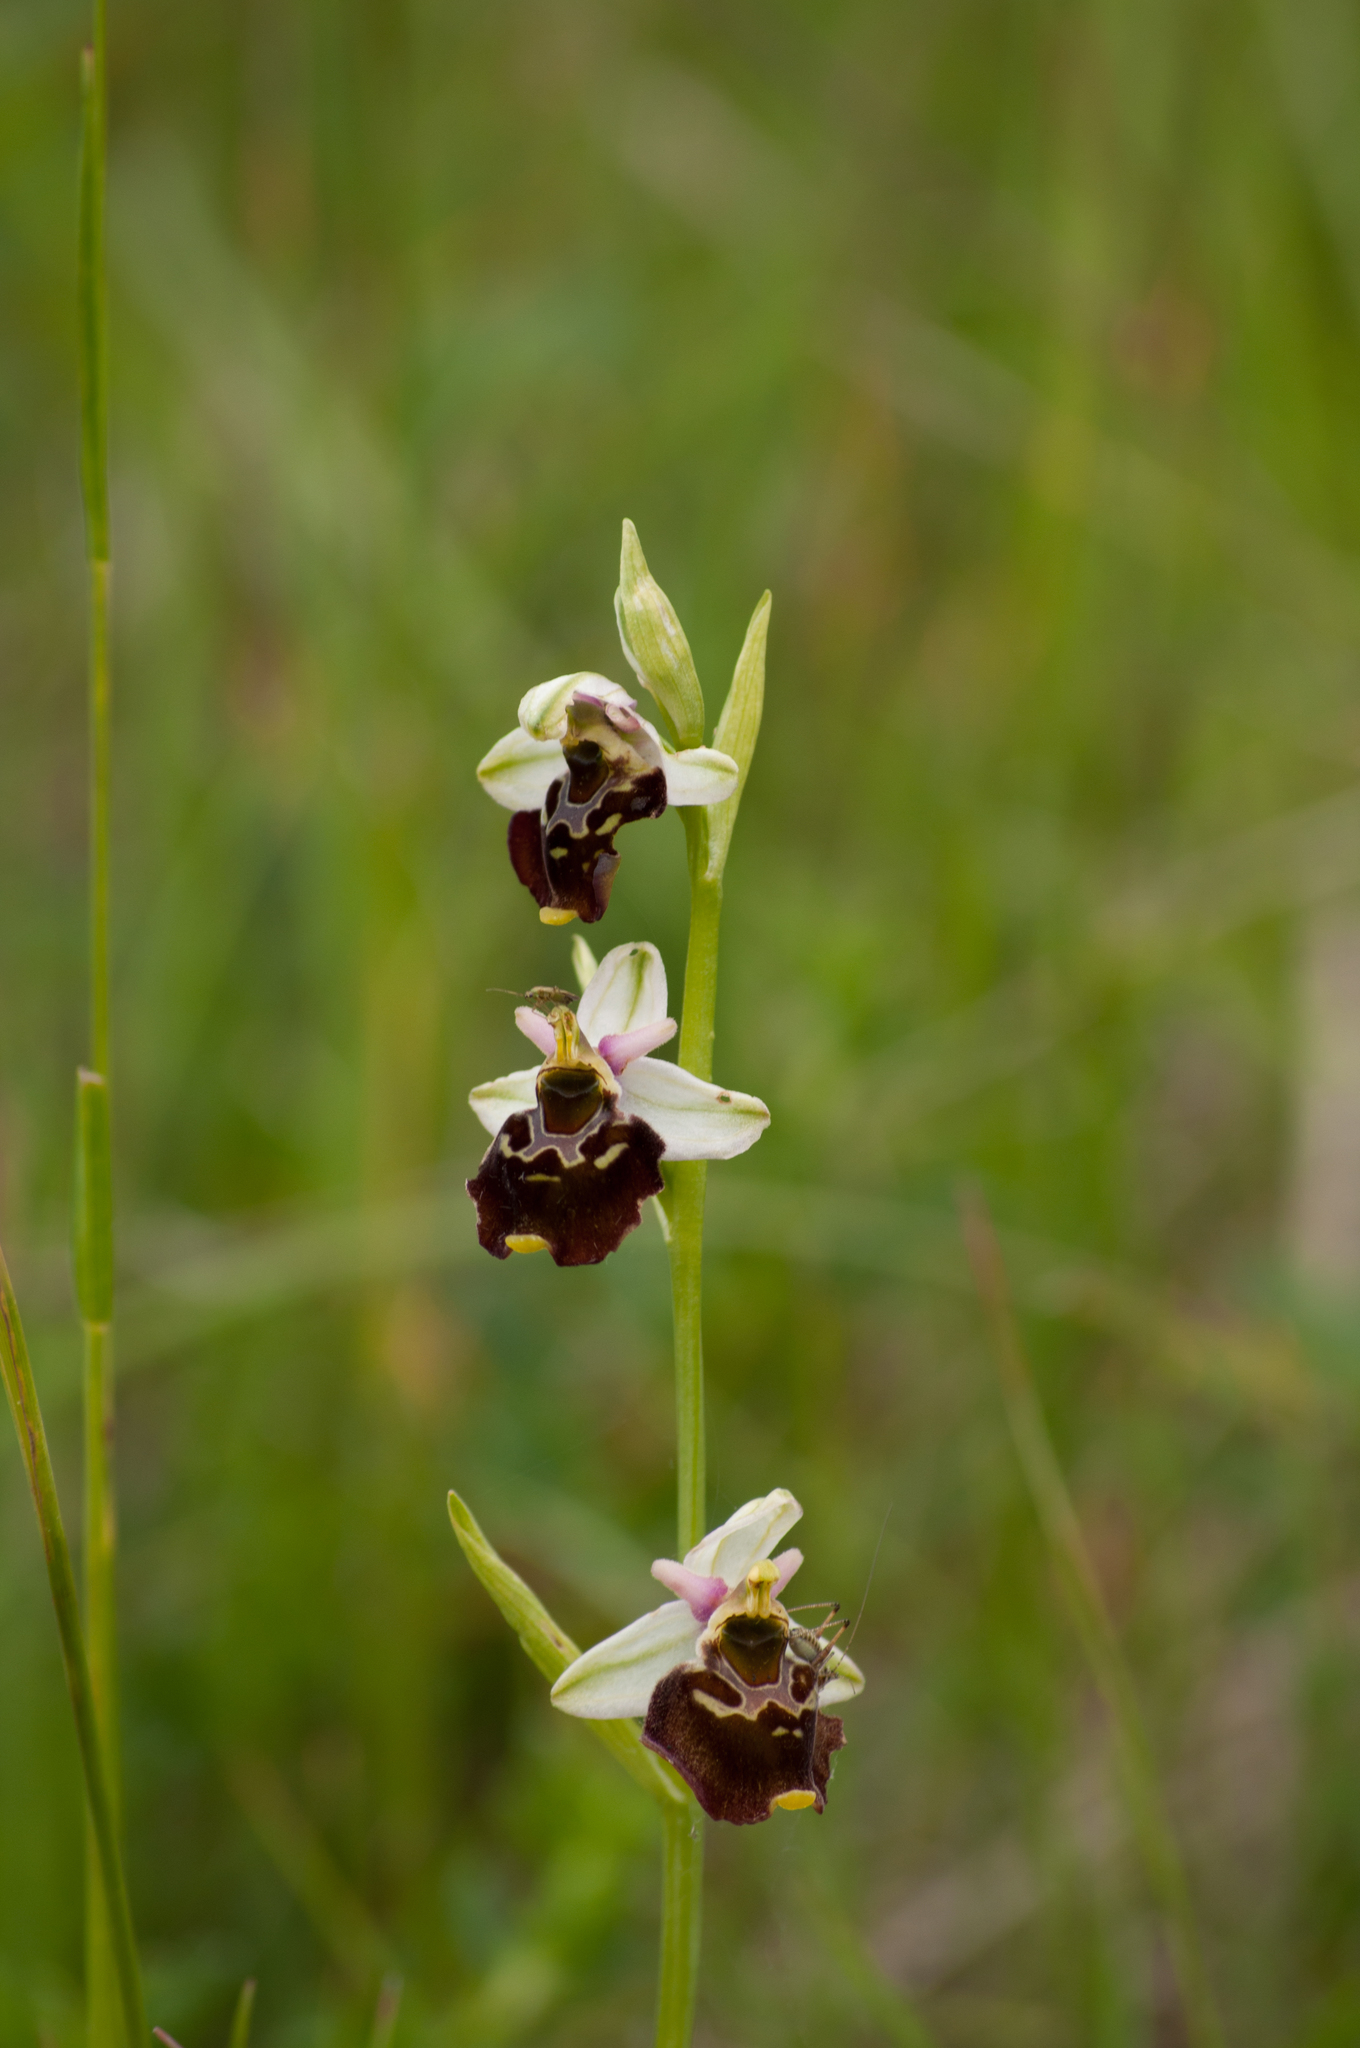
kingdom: Plantae
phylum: Tracheophyta
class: Liliopsida
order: Asparagales
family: Orchidaceae
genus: Ophrys
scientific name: Ophrys holosericea
